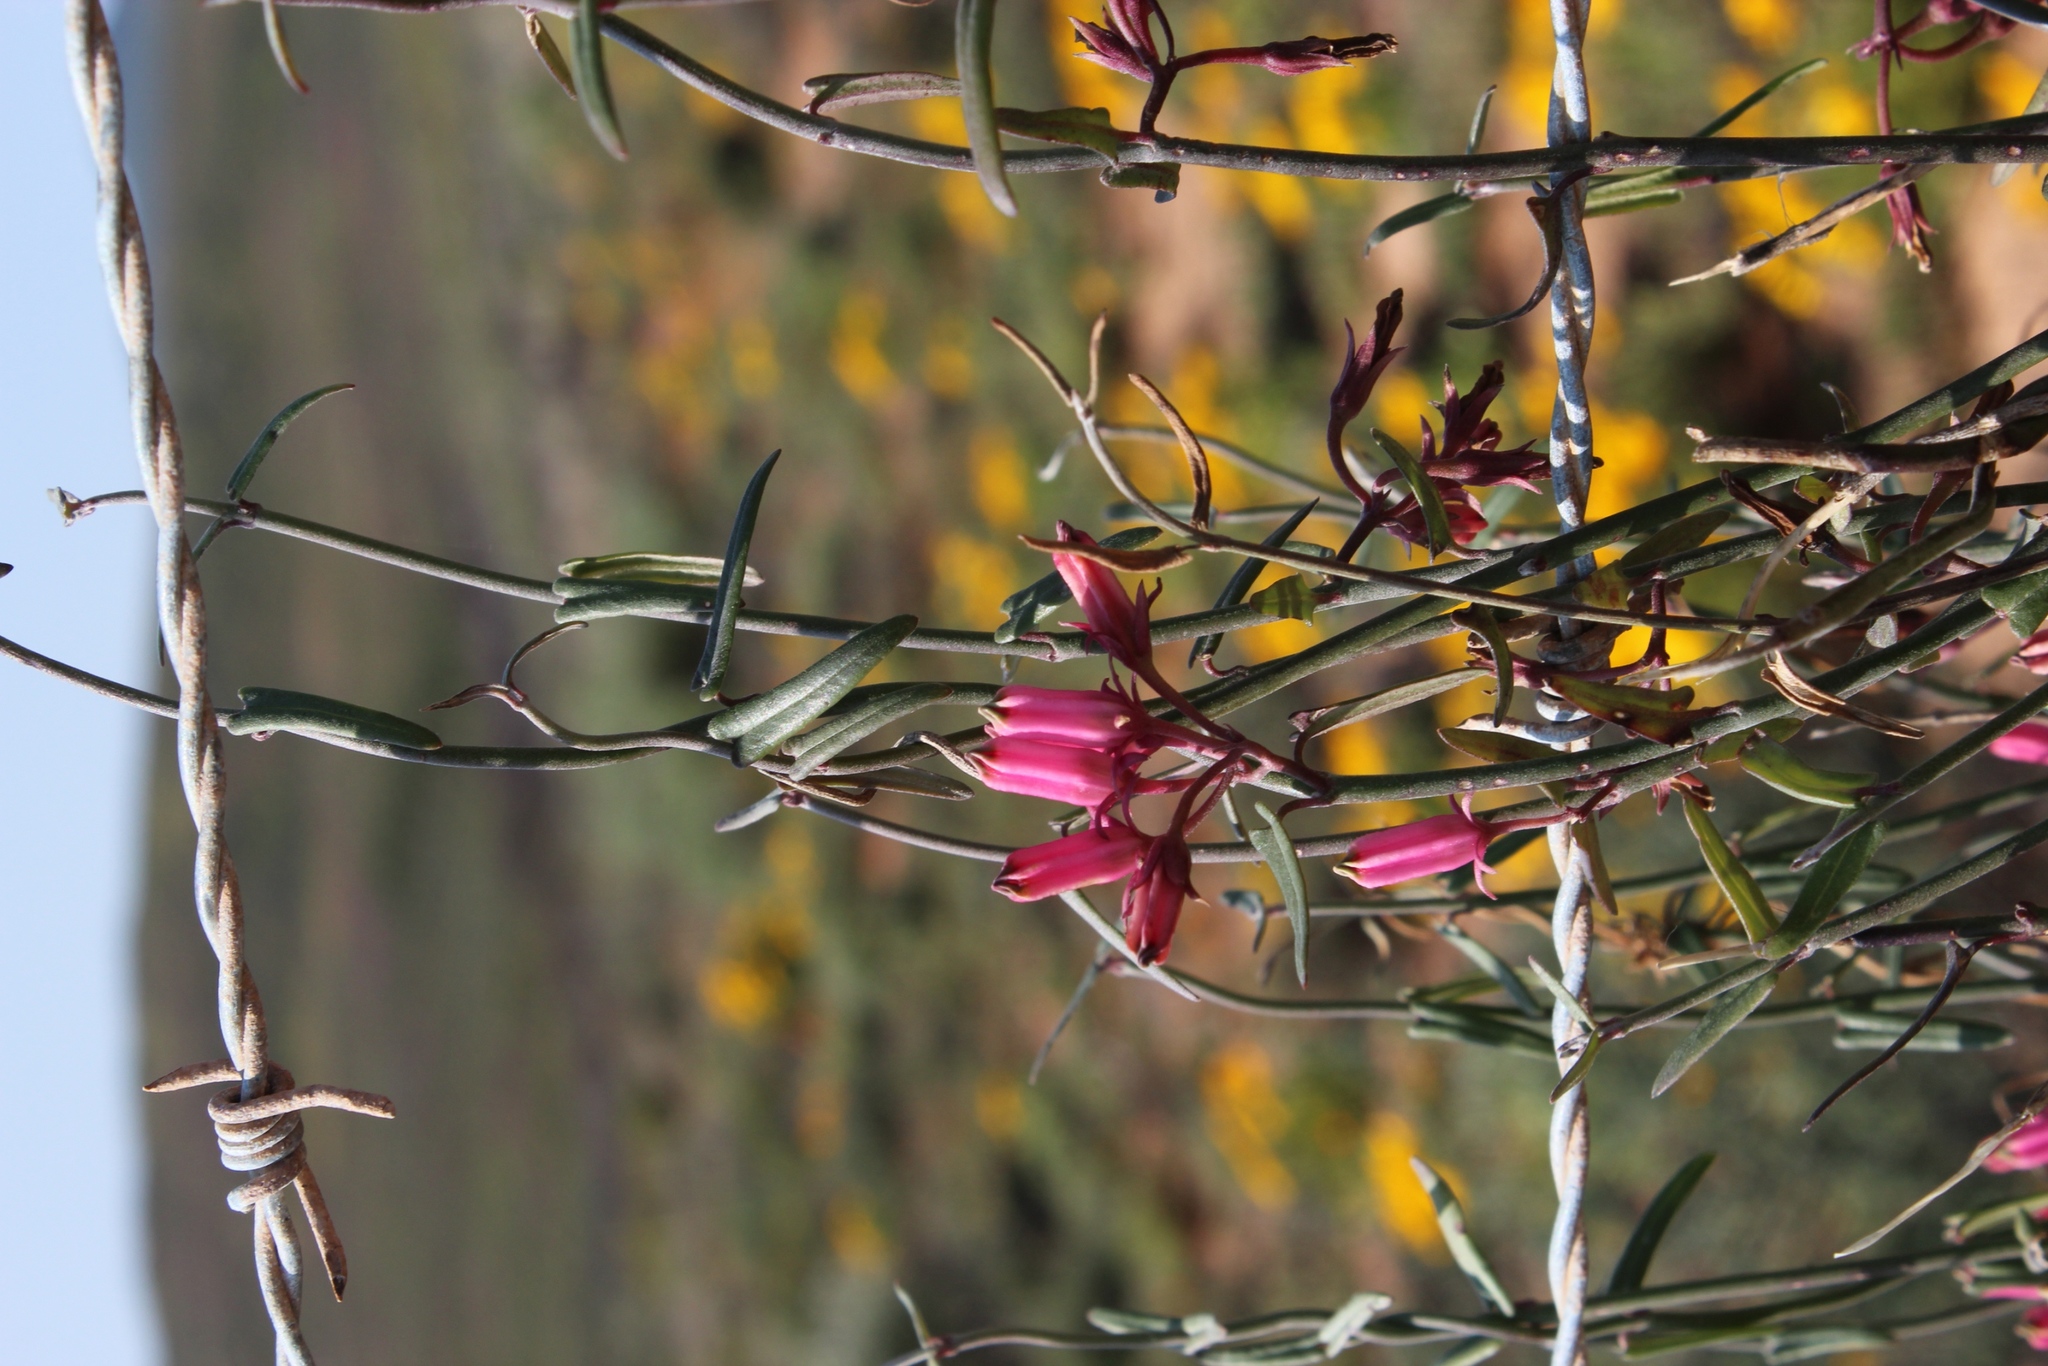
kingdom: Plantae
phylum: Tracheophyta
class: Magnoliopsida
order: Gentianales
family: Apocynaceae
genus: Microloma
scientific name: Microloma sagittatum
